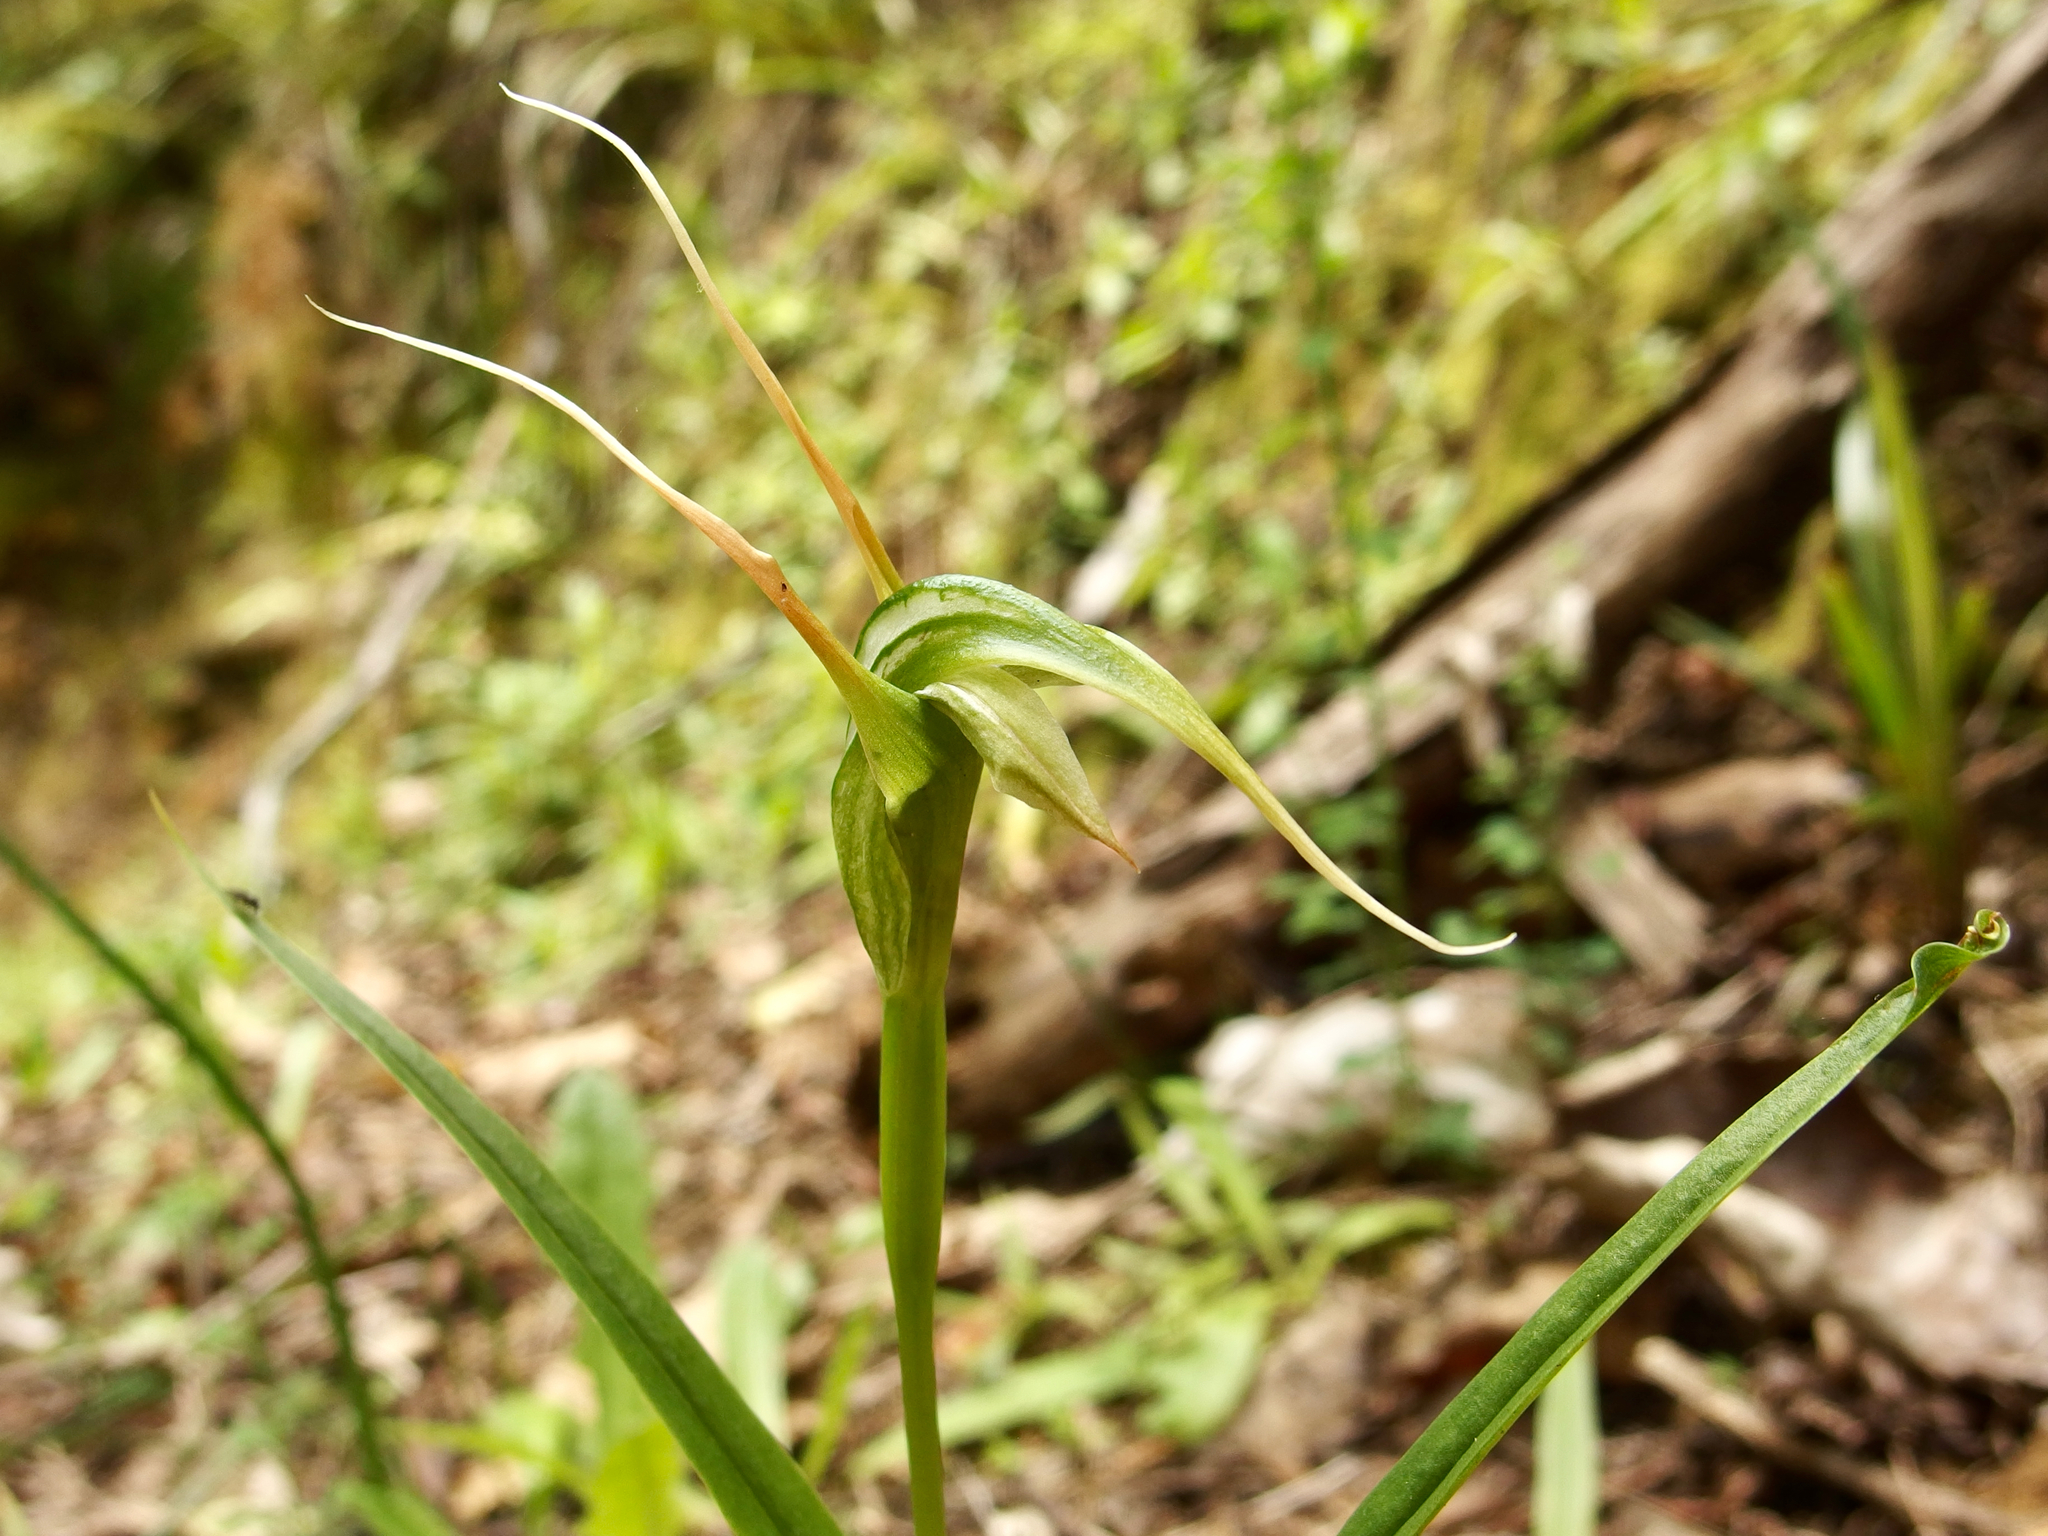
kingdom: Plantae
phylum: Tracheophyta
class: Liliopsida
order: Asparagales
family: Orchidaceae
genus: Pterostylis
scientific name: Pterostylis banksii
